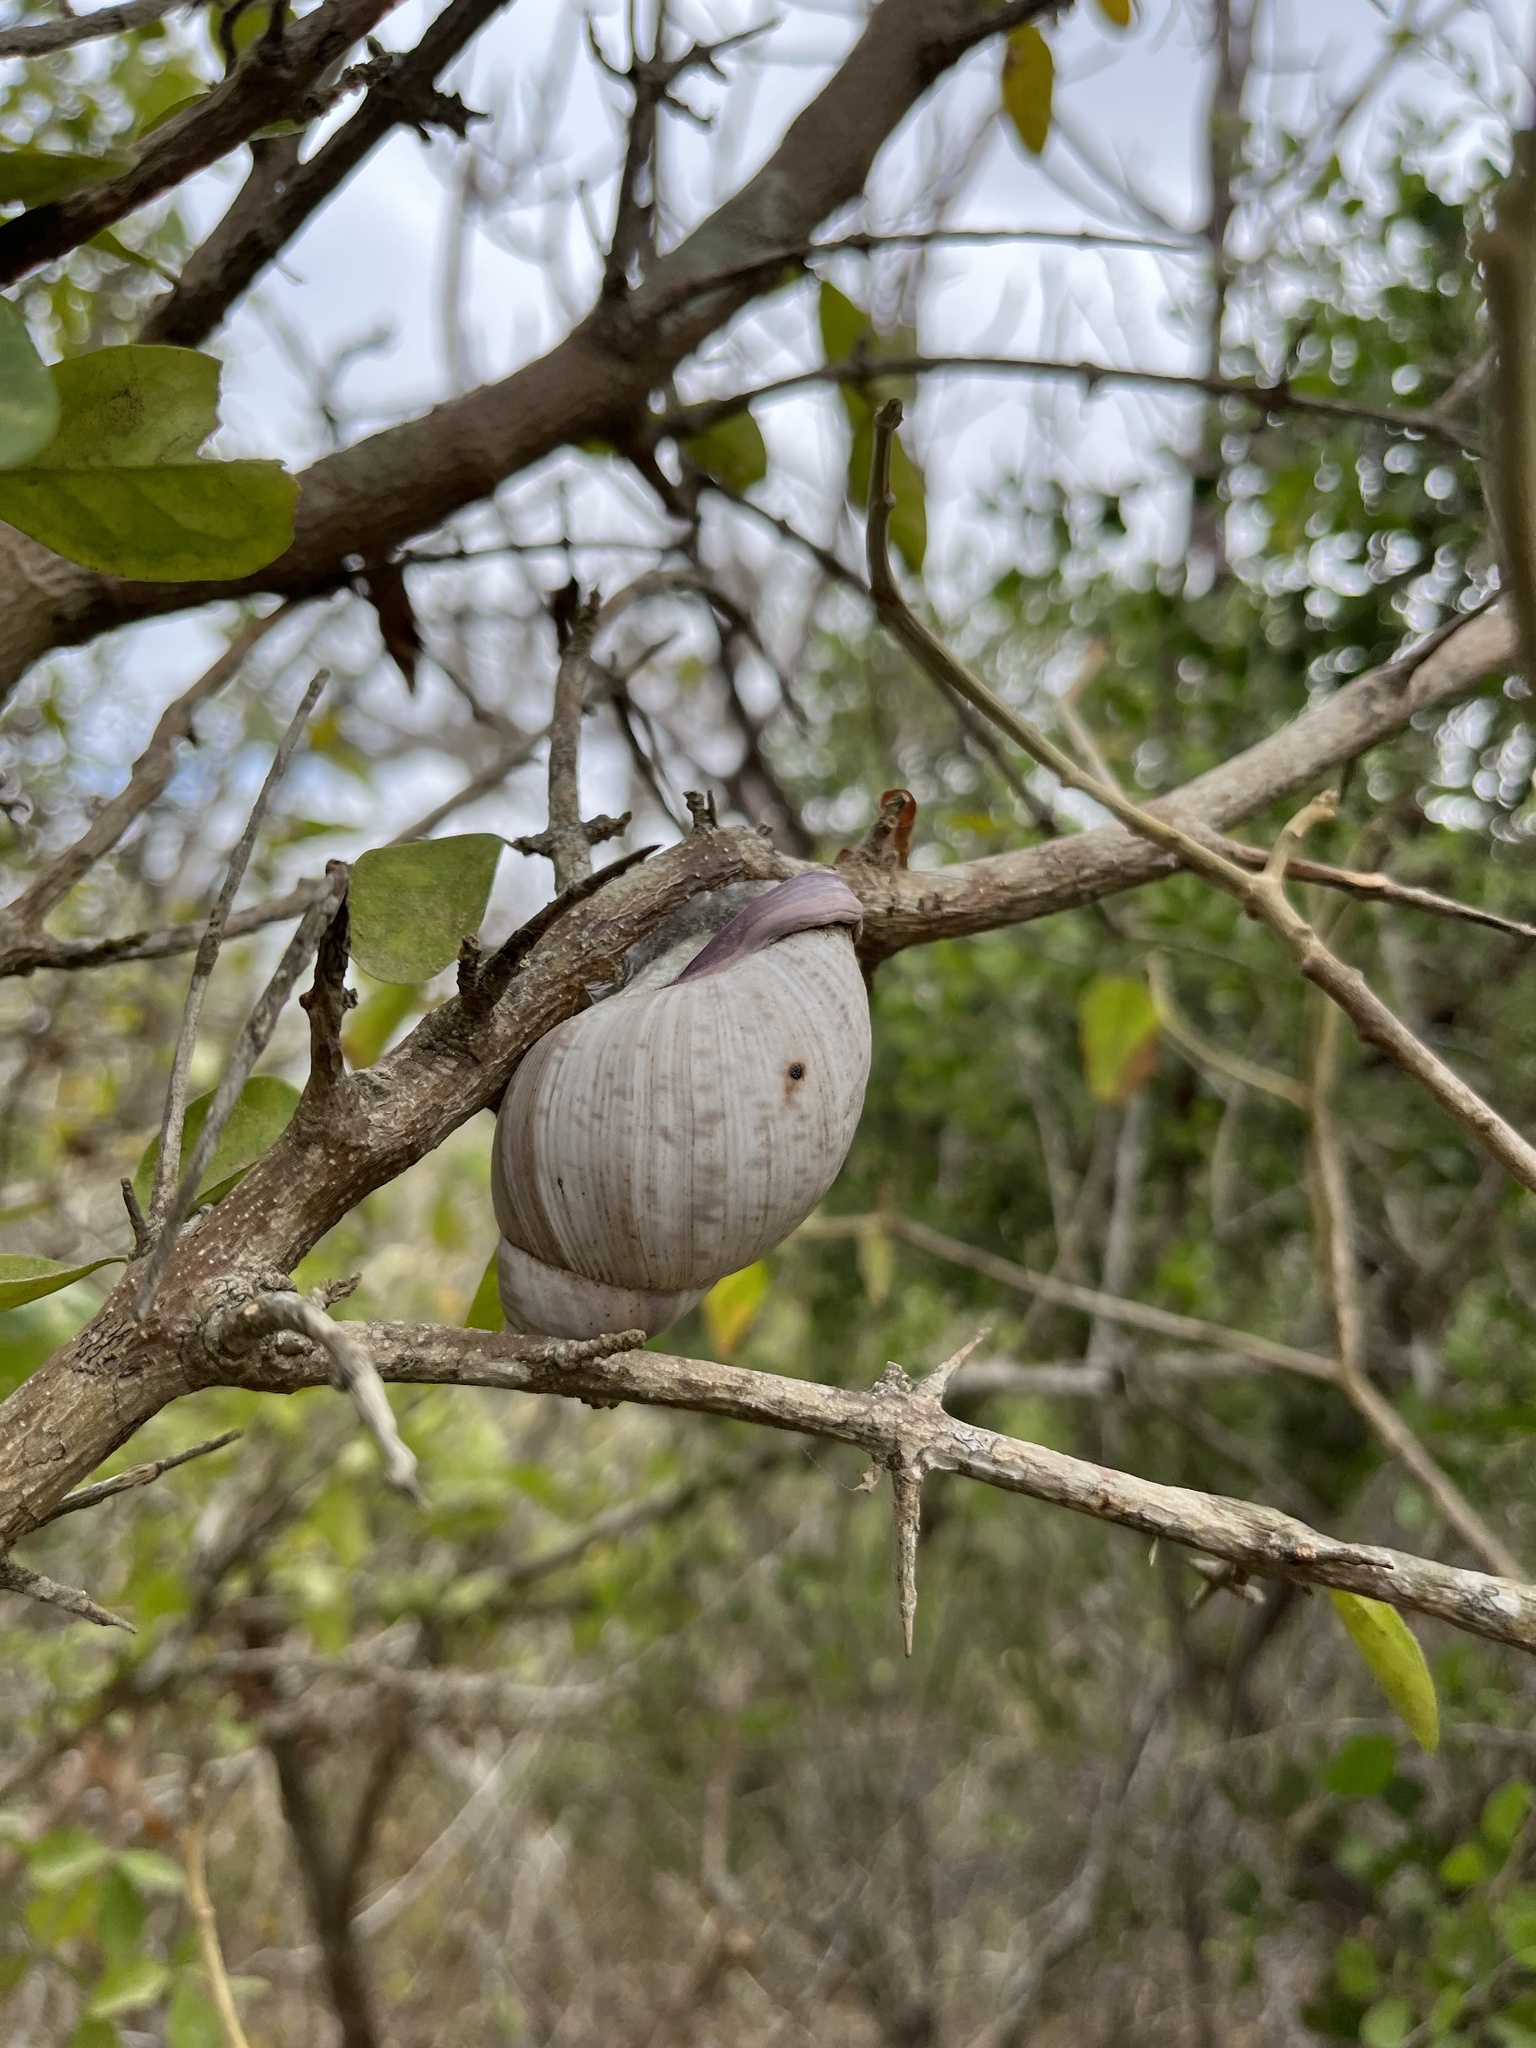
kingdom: Animalia
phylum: Mollusca
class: Gastropoda
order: Stylommatophora
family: Orthalicidae
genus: Porphyrobaphe
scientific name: Porphyrobaphe iostoma
